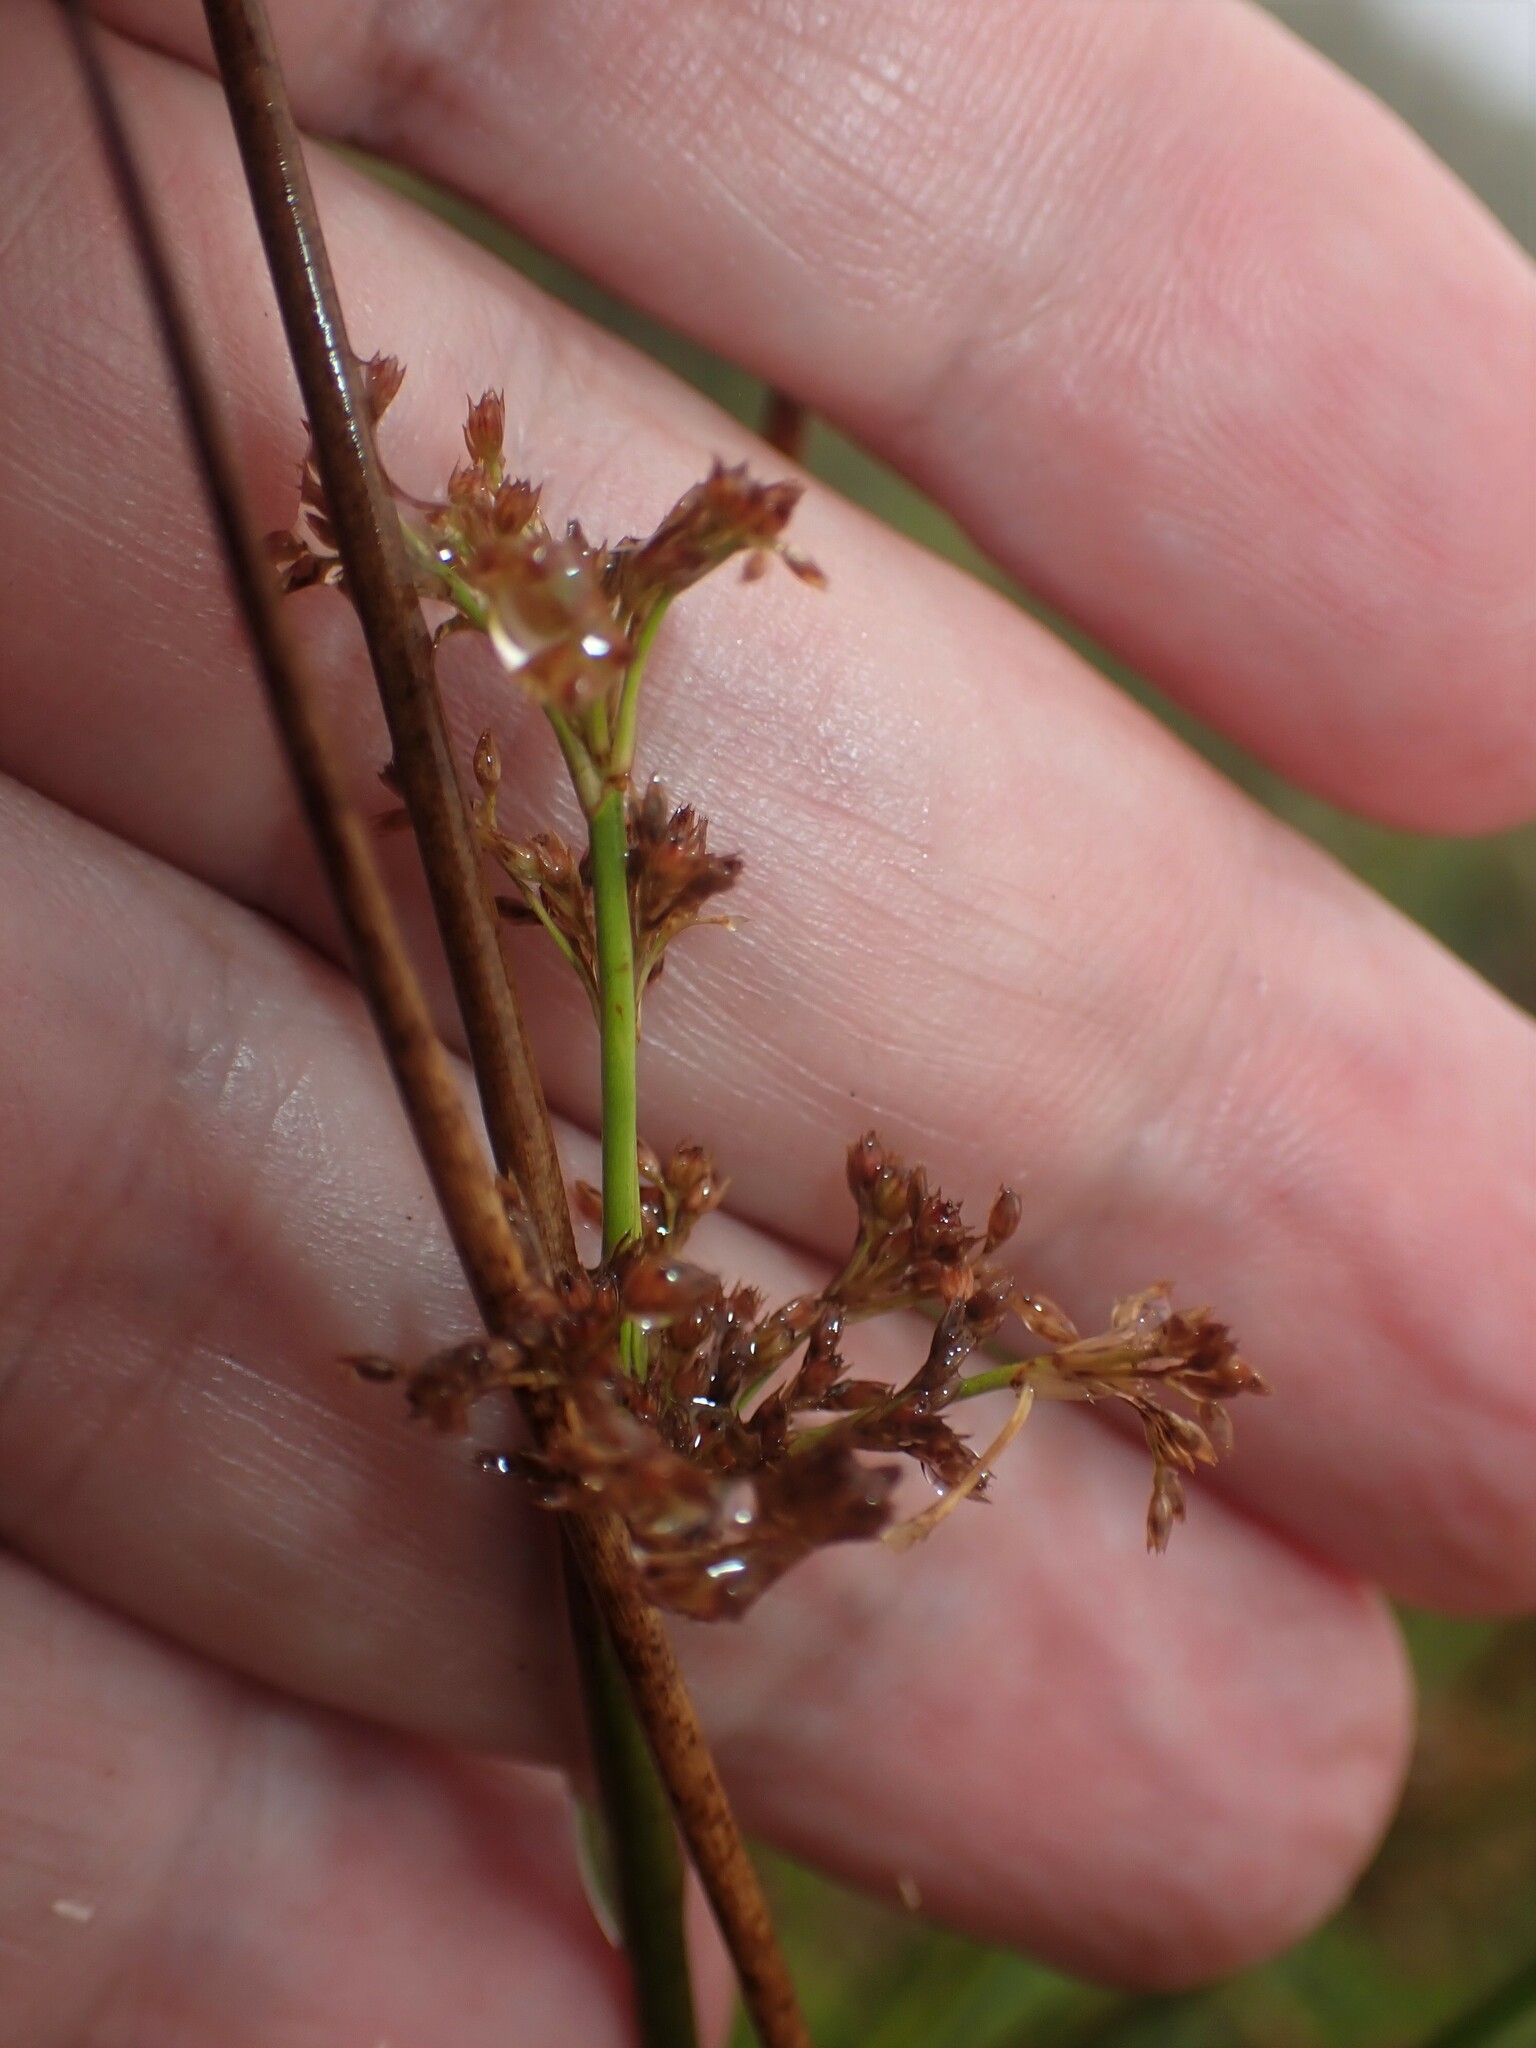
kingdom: Plantae
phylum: Tracheophyta
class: Liliopsida
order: Poales
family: Juncaceae
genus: Juncus
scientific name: Juncus effusus
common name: Soft rush
